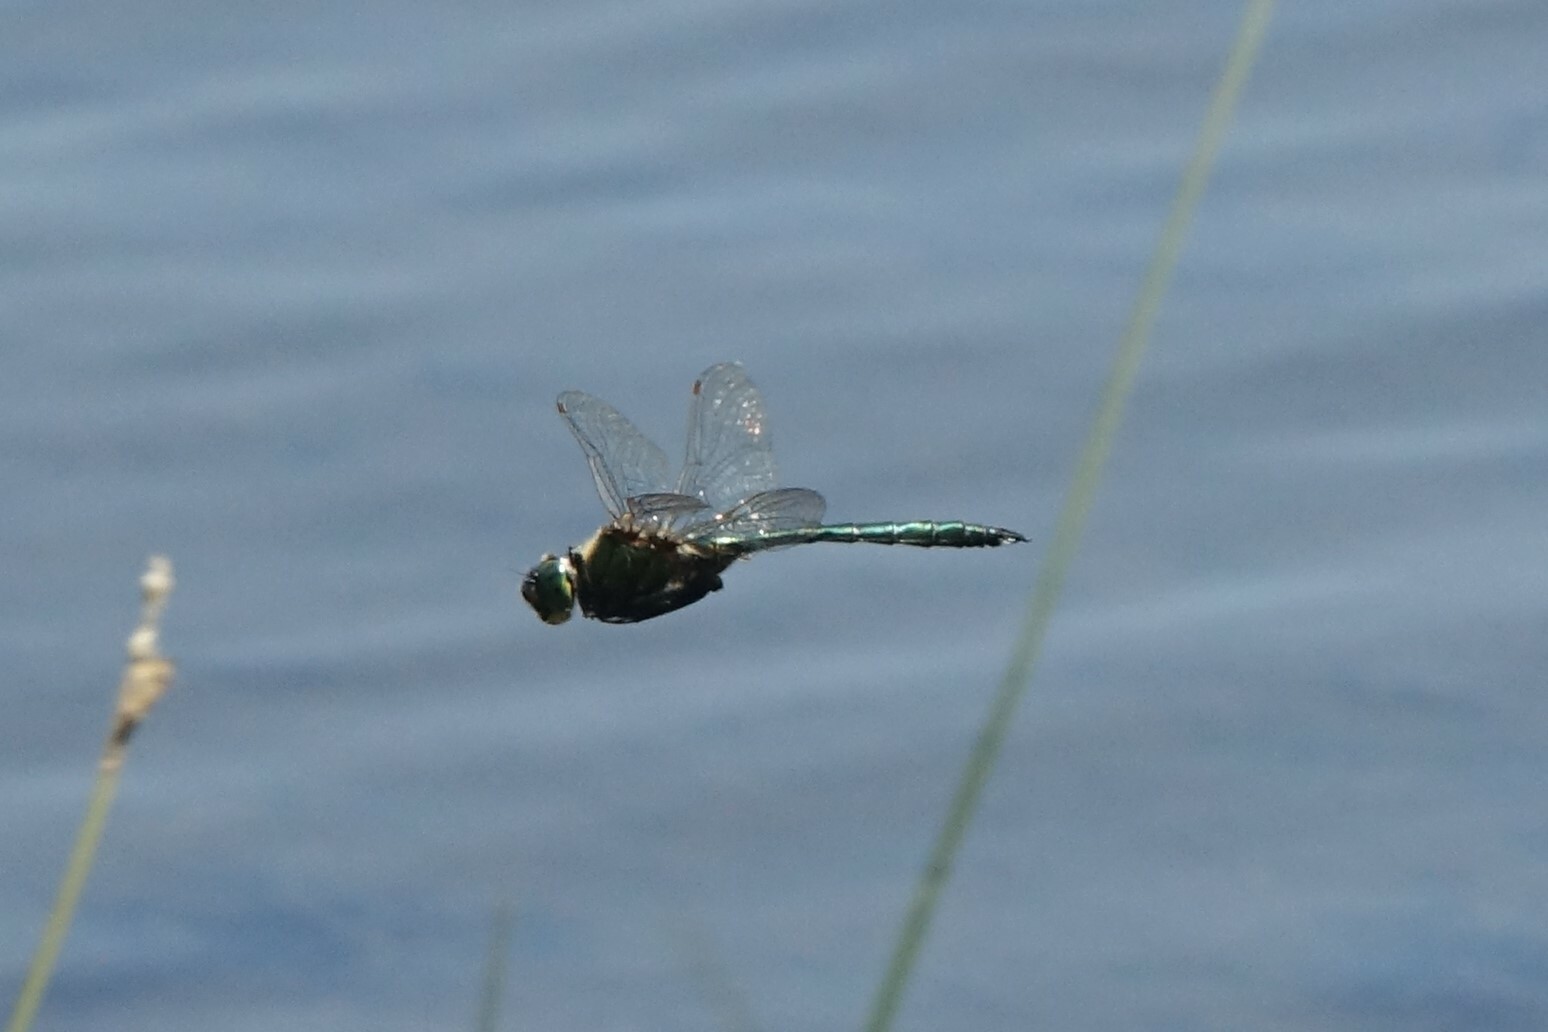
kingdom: Animalia
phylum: Arthropoda
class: Insecta
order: Odonata
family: Corduliidae
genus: Somatochlora
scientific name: Somatochlora metallica
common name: Brilliant emerald
